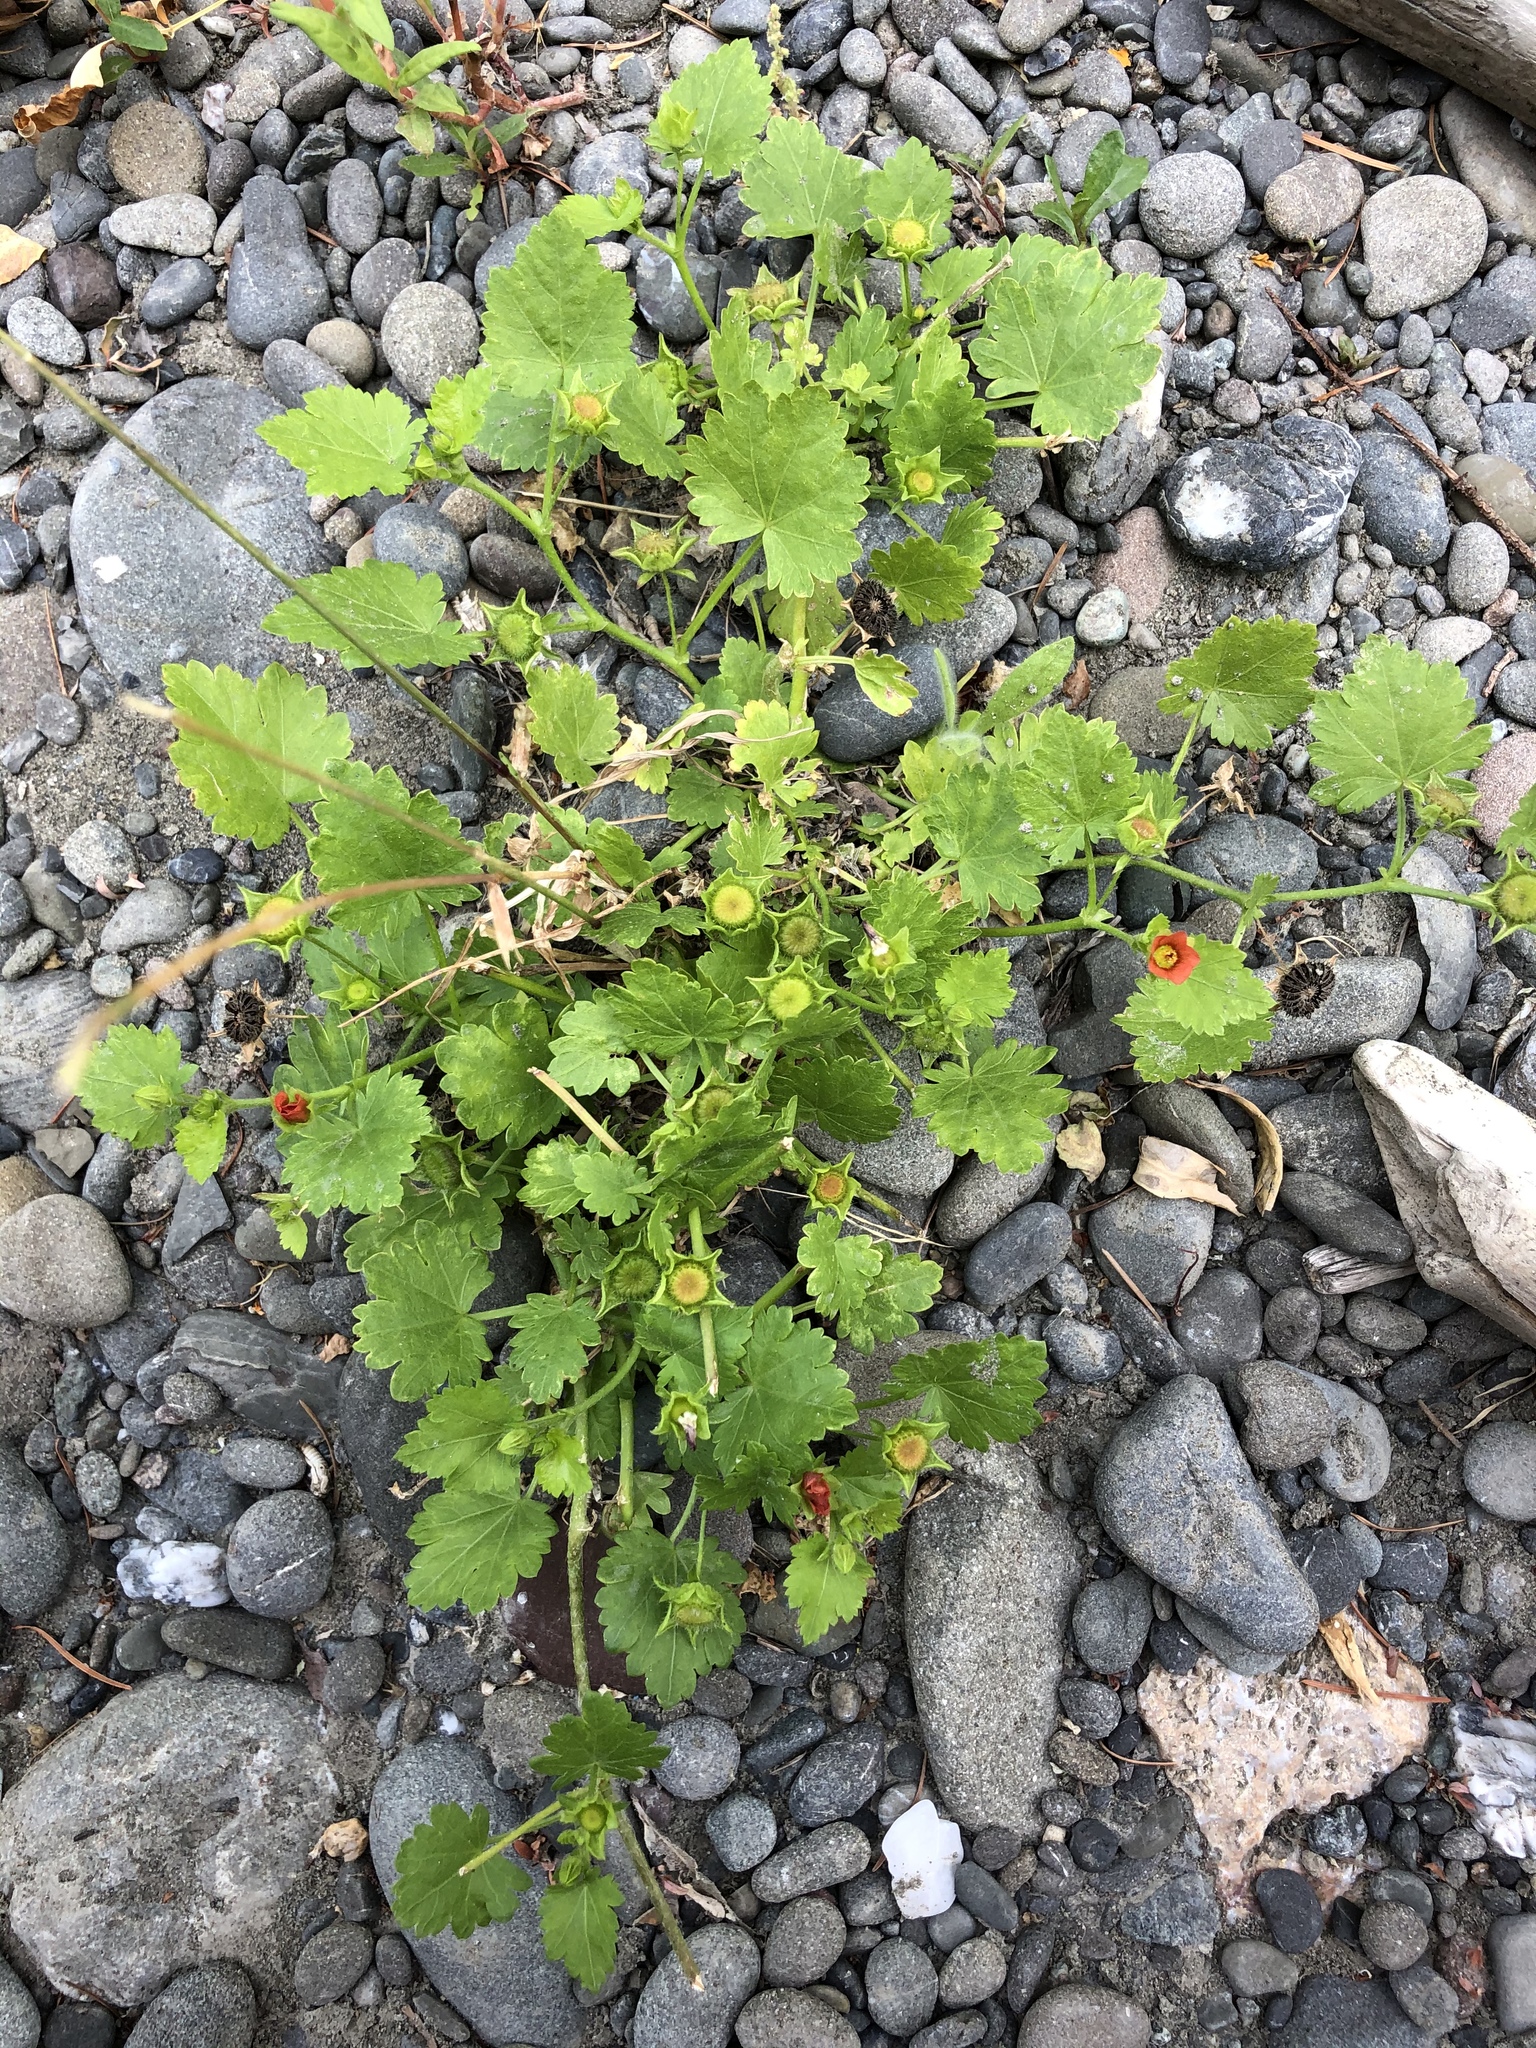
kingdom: Plantae
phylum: Tracheophyta
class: Magnoliopsida
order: Malvales
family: Malvaceae
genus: Modiola
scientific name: Modiola caroliniana
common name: Carolina bristlemallow
